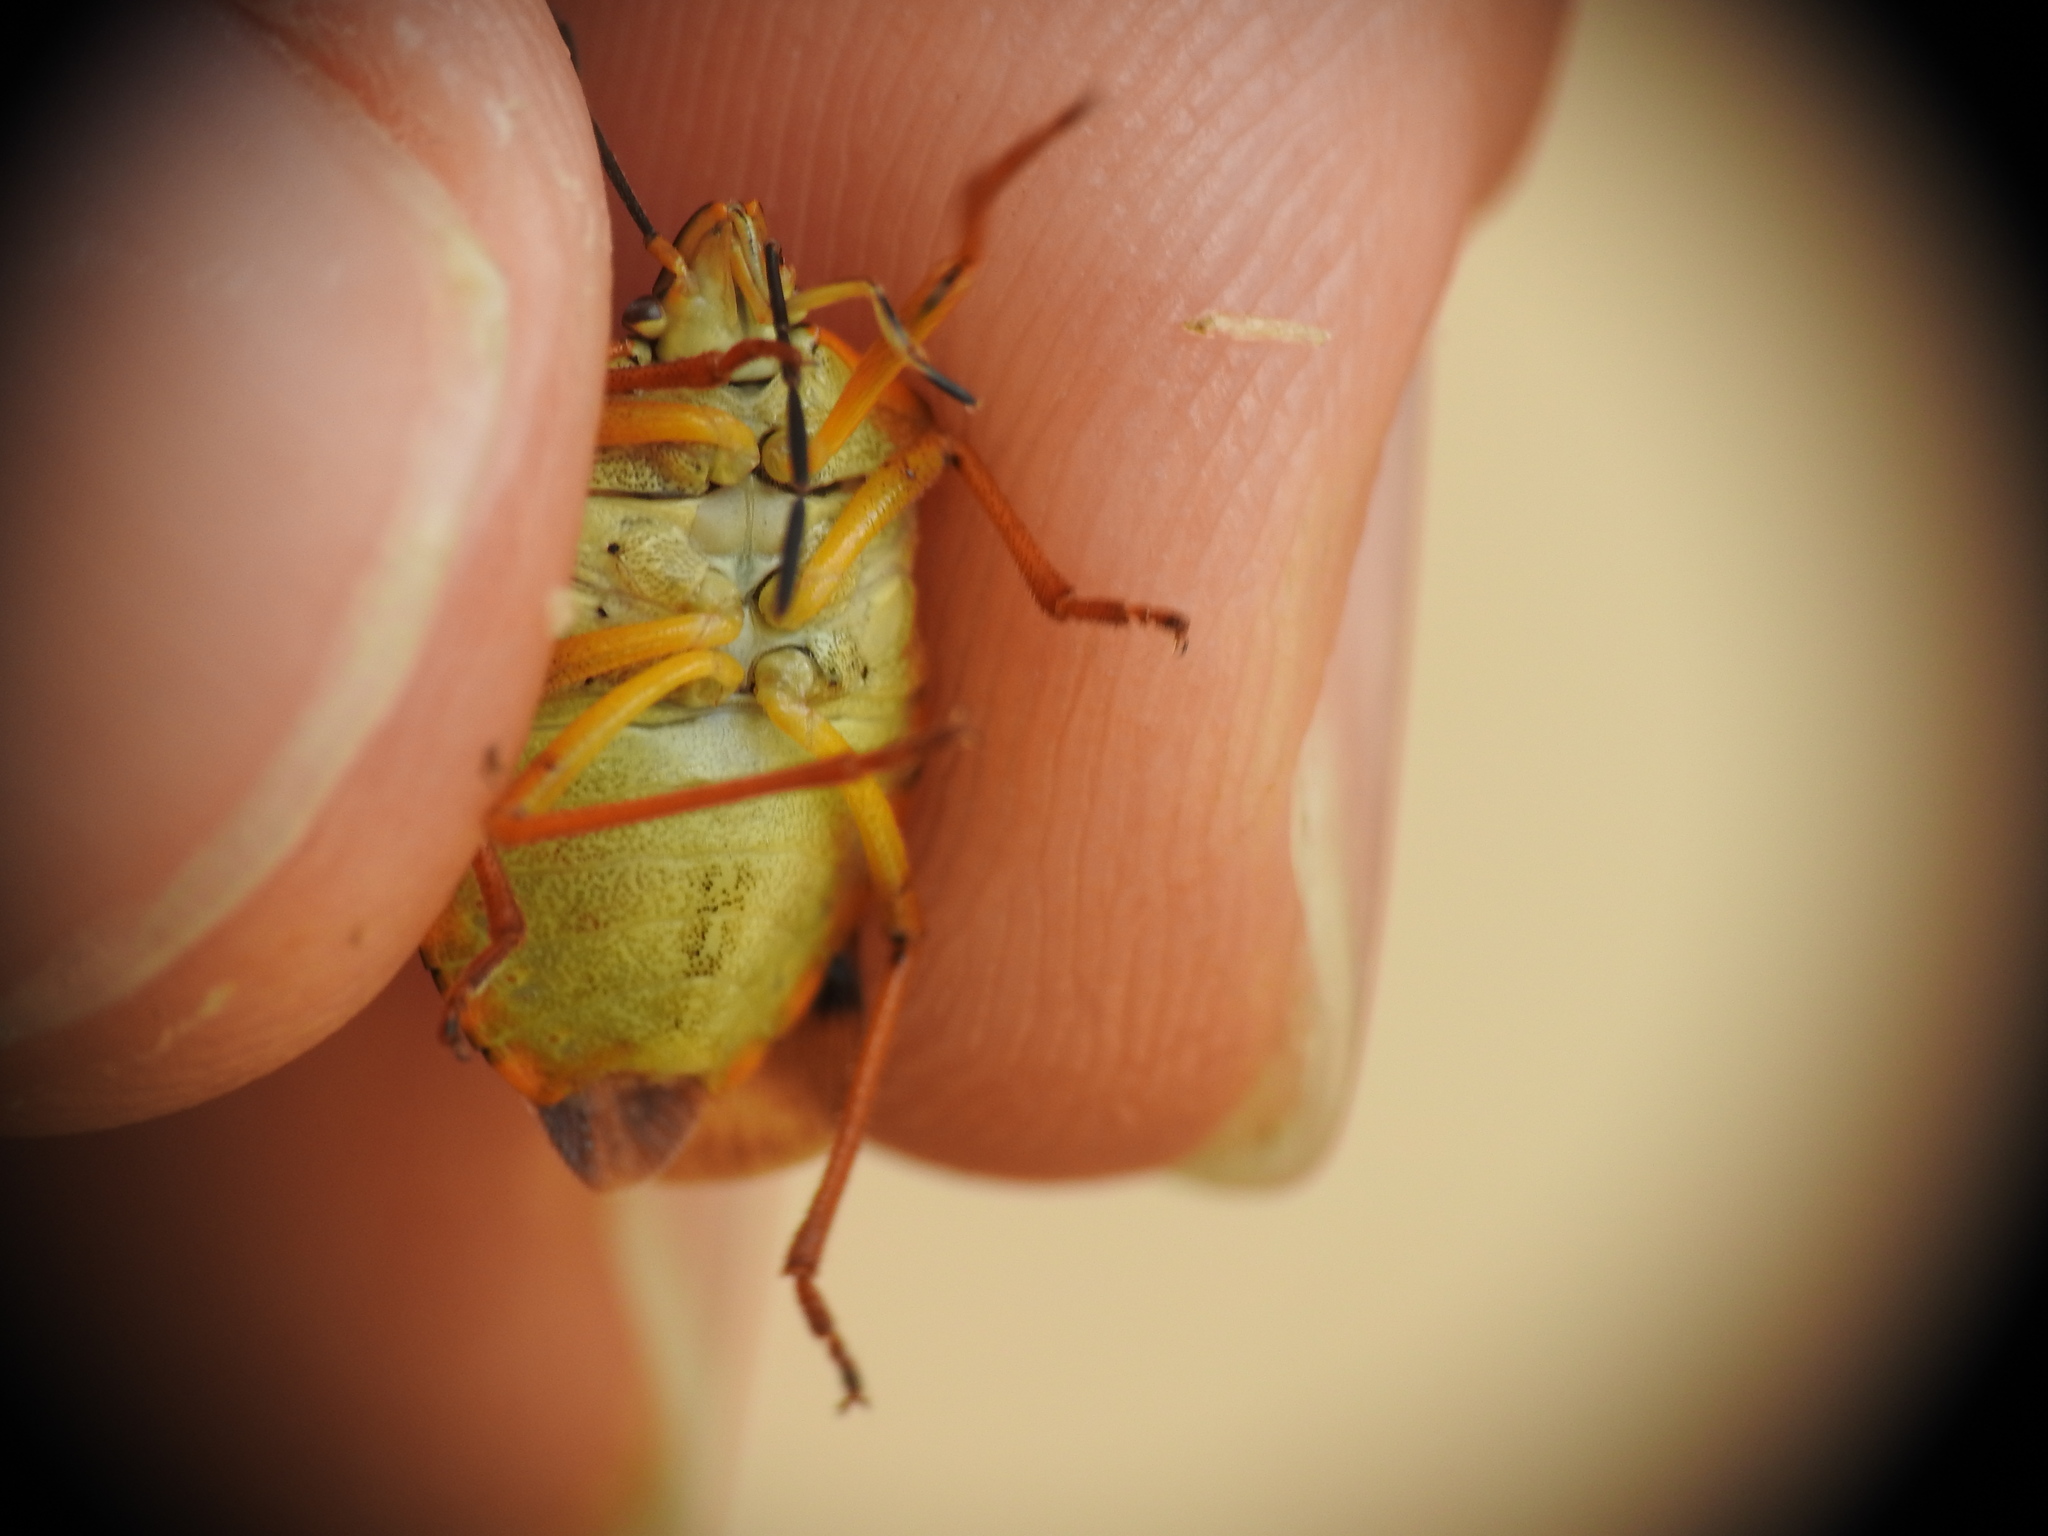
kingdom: Animalia
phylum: Arthropoda
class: Insecta
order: Hemiptera
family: Pentatomidae
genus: Carpocoris
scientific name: Carpocoris purpureipennis
